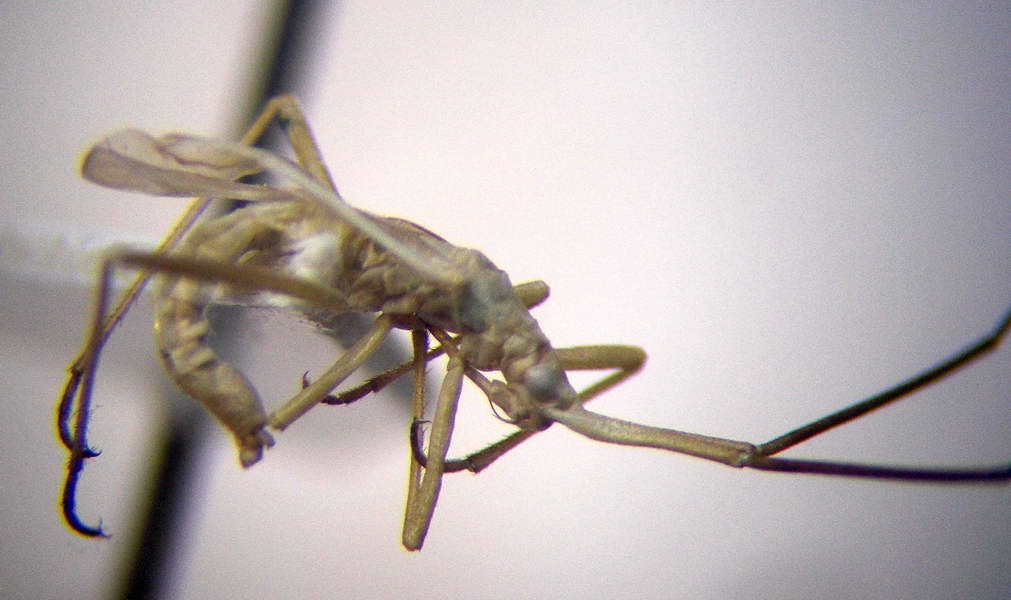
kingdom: Animalia
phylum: Arthropoda
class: Insecta
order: Hemiptera
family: Miridae
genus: Chorosomella
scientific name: Chorosomella jakowleffi
